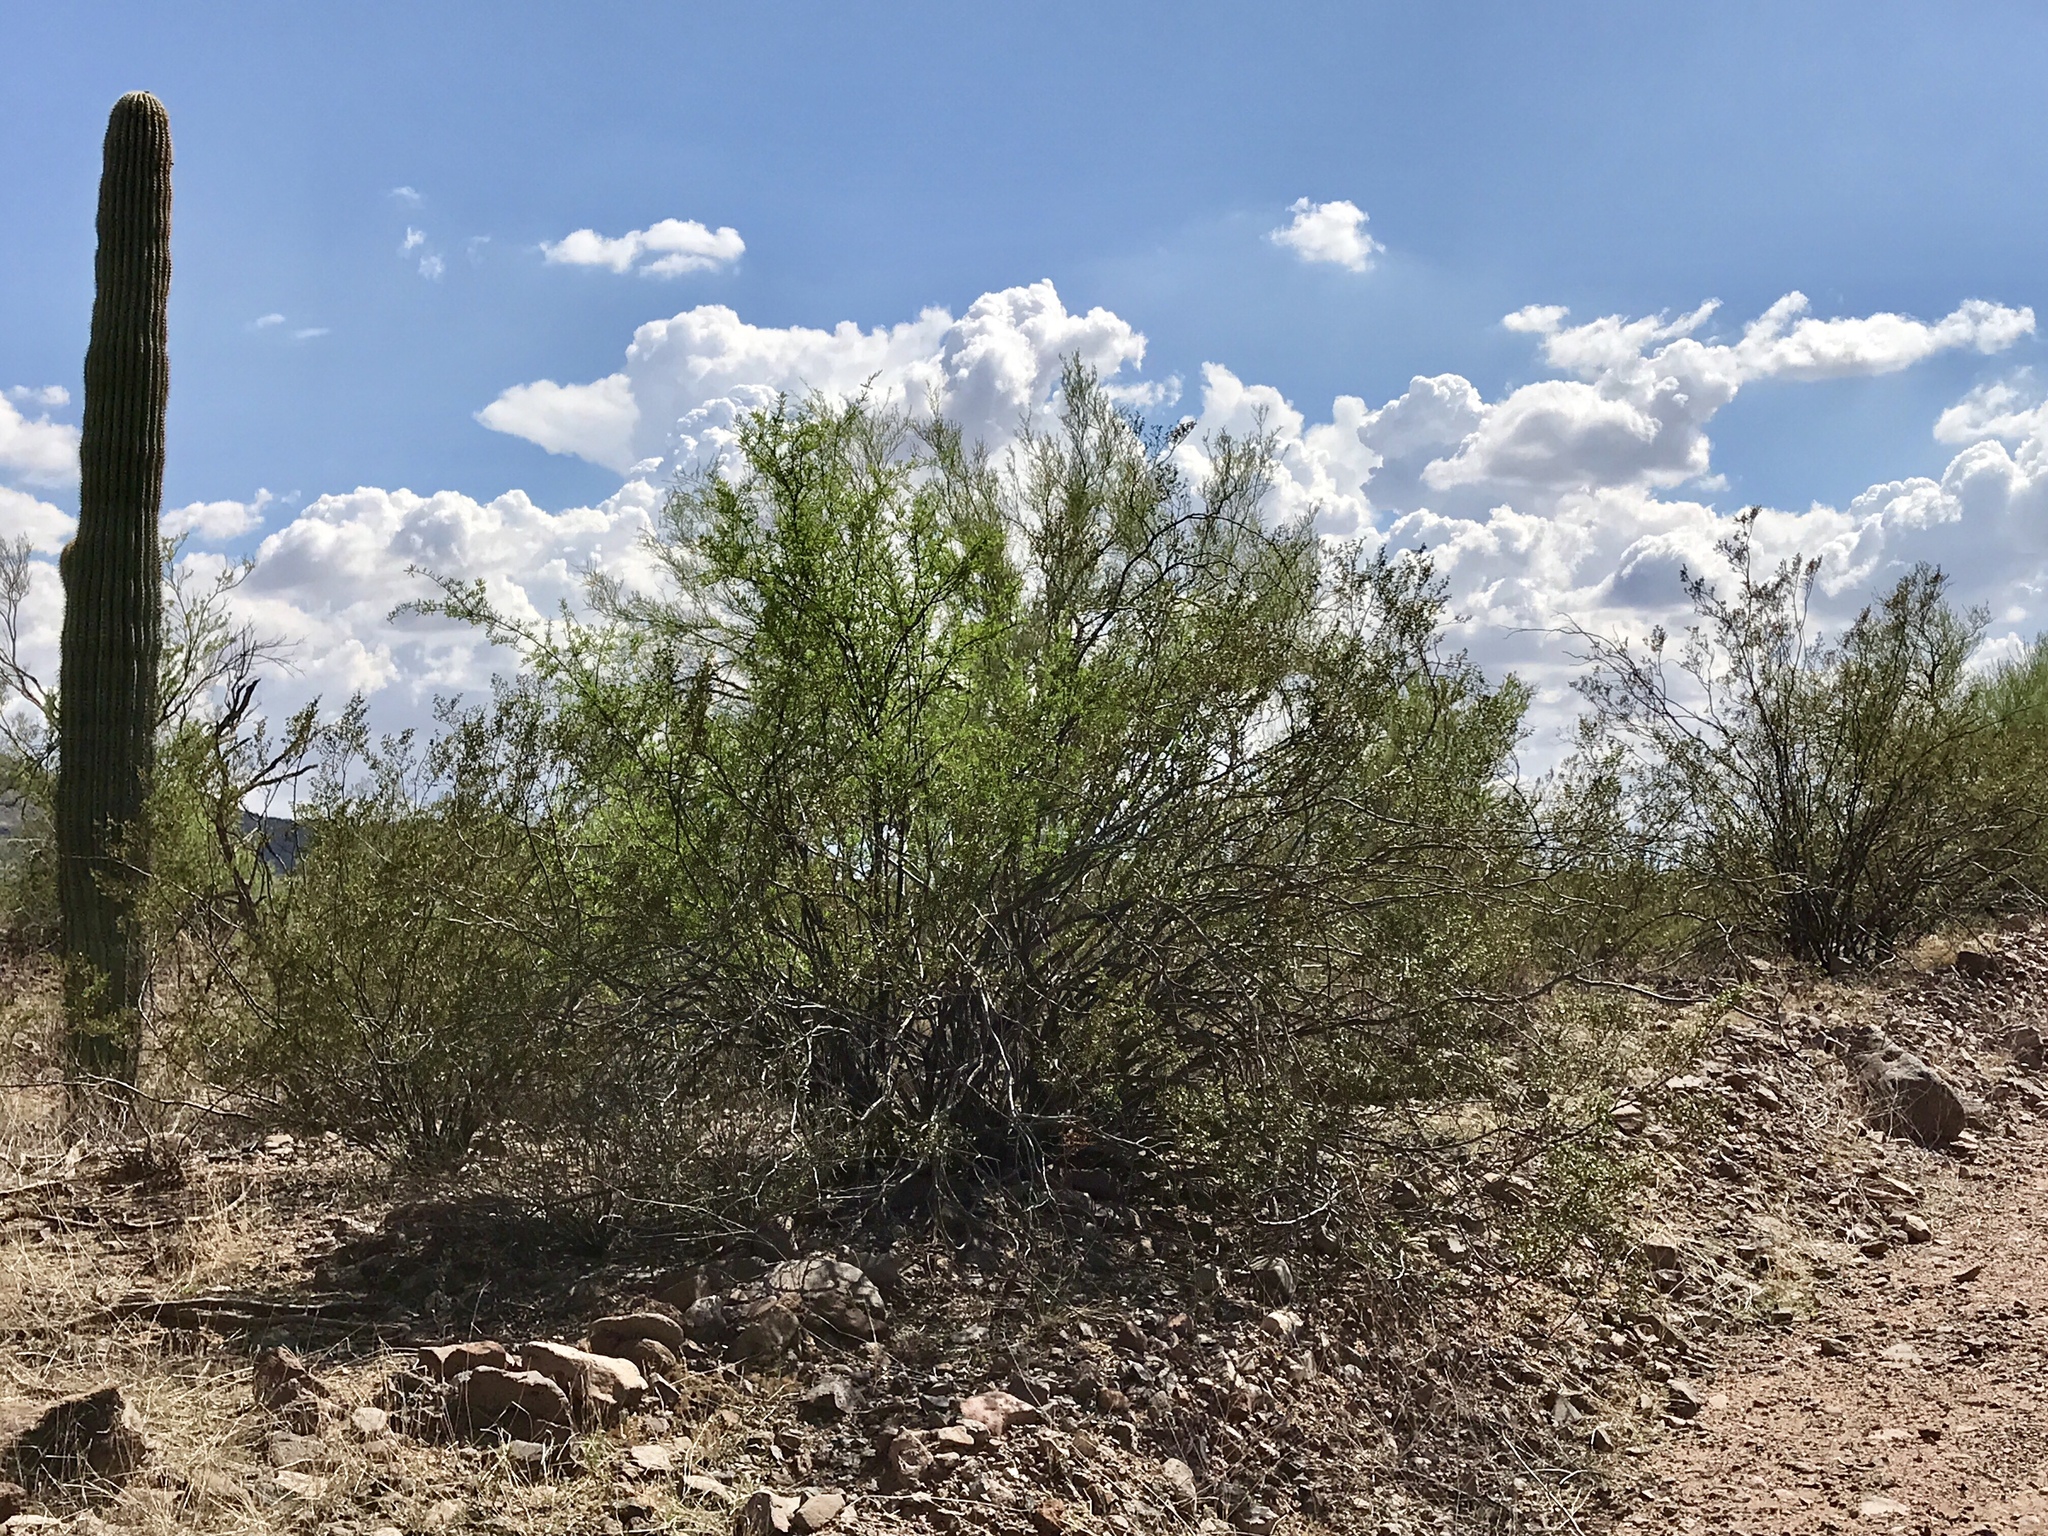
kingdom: Plantae
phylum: Tracheophyta
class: Magnoliopsida
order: Zygophyllales
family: Zygophyllaceae
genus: Larrea
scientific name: Larrea tridentata
